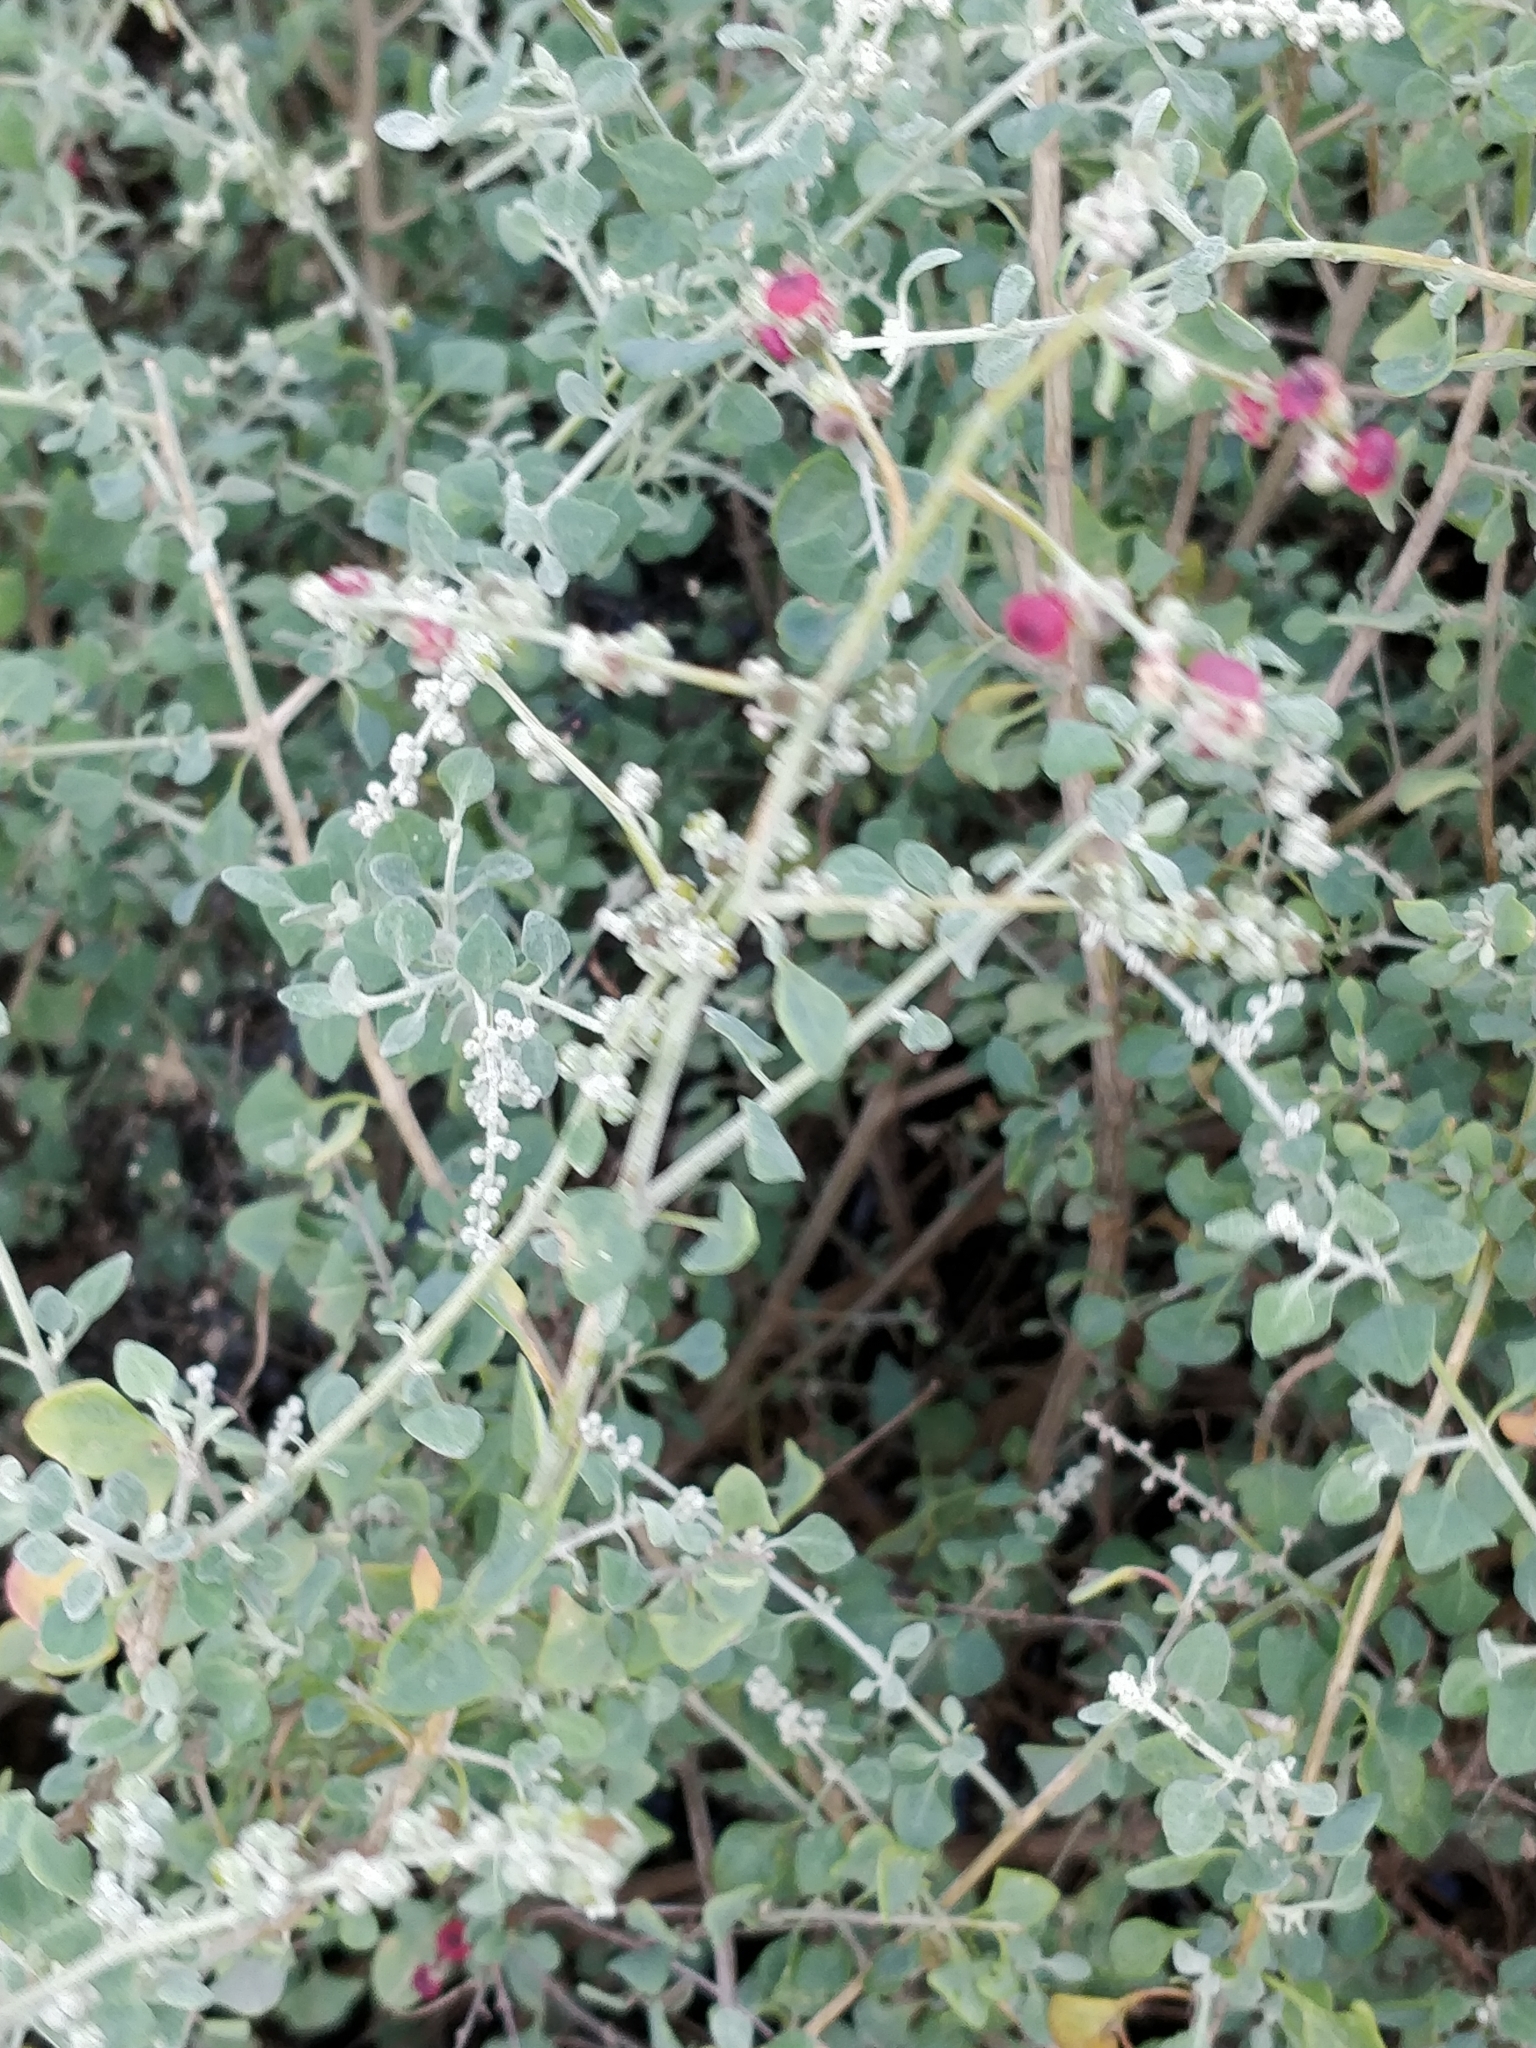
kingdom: Plantae
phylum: Tracheophyta
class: Magnoliopsida
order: Caryophyllales
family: Amaranthaceae
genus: Chenopodium
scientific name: Chenopodium spinescens
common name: Berry-saltbush
